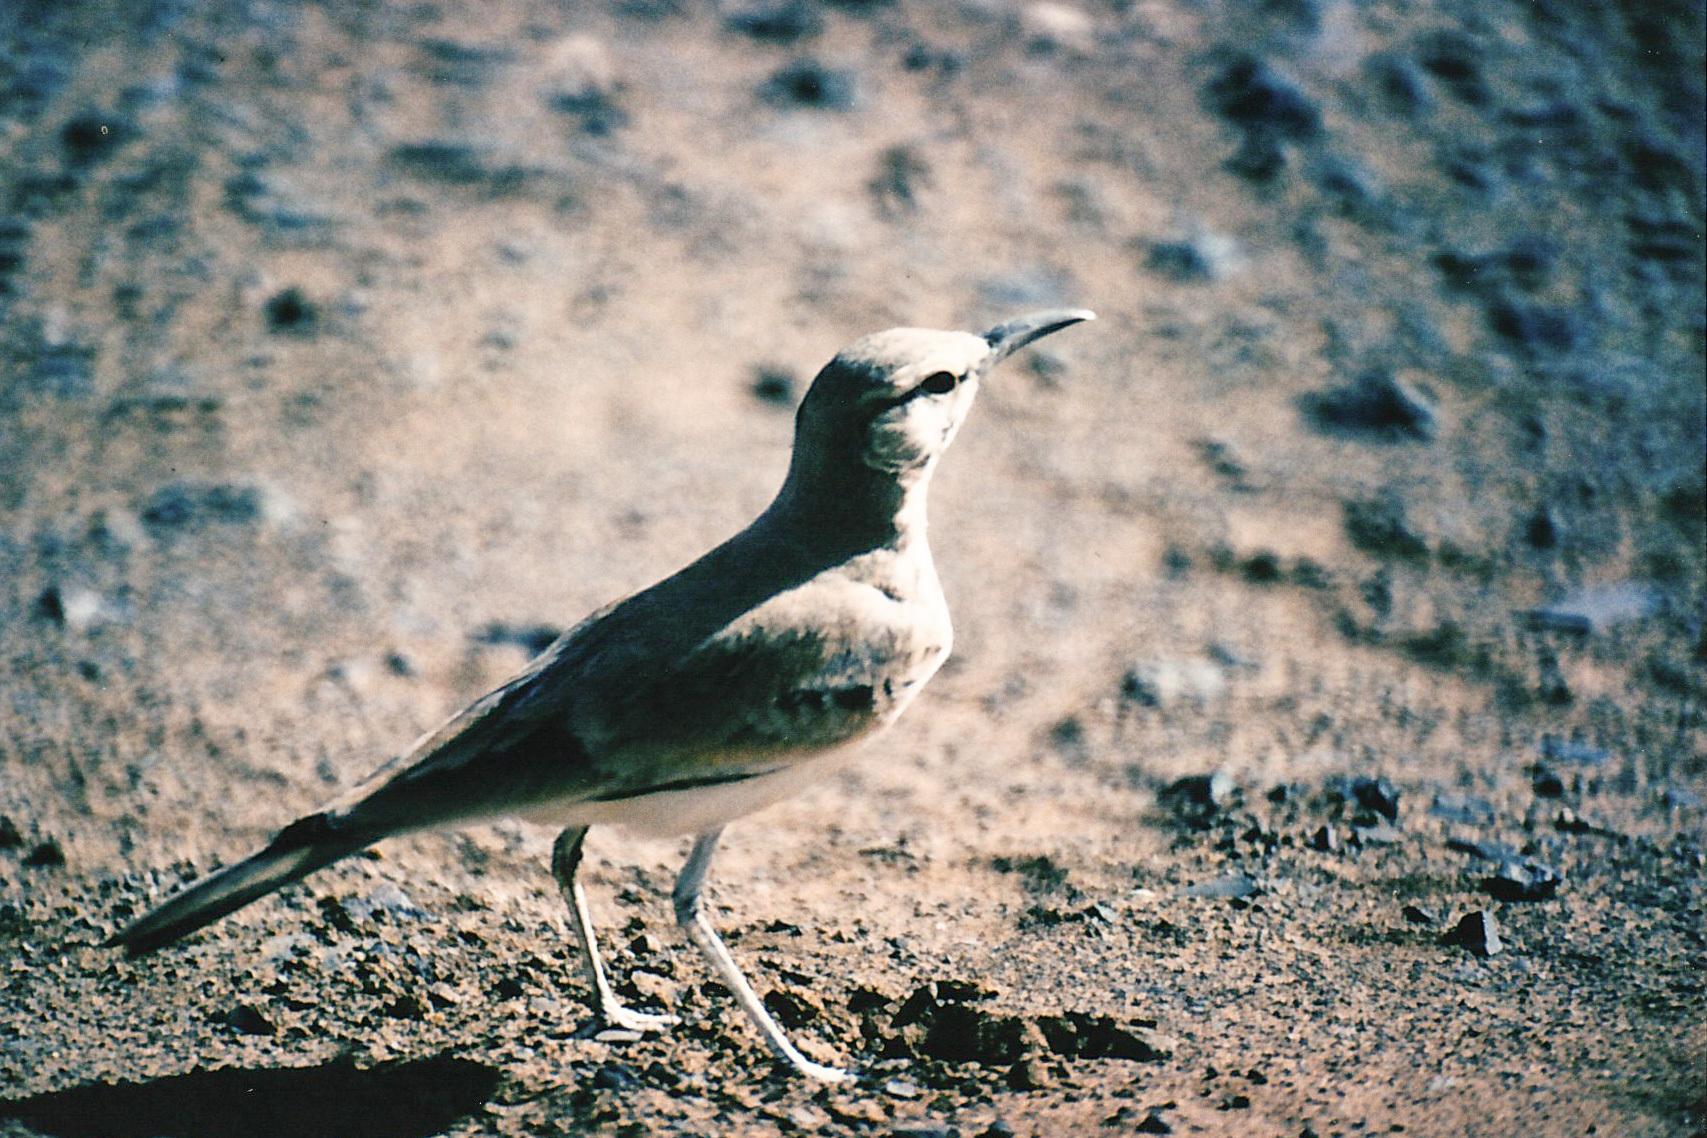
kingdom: Animalia
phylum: Chordata
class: Aves
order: Passeriformes
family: Alaudidae
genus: Alaemon
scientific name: Alaemon alaudipes
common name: Greater hoopoe-lark
